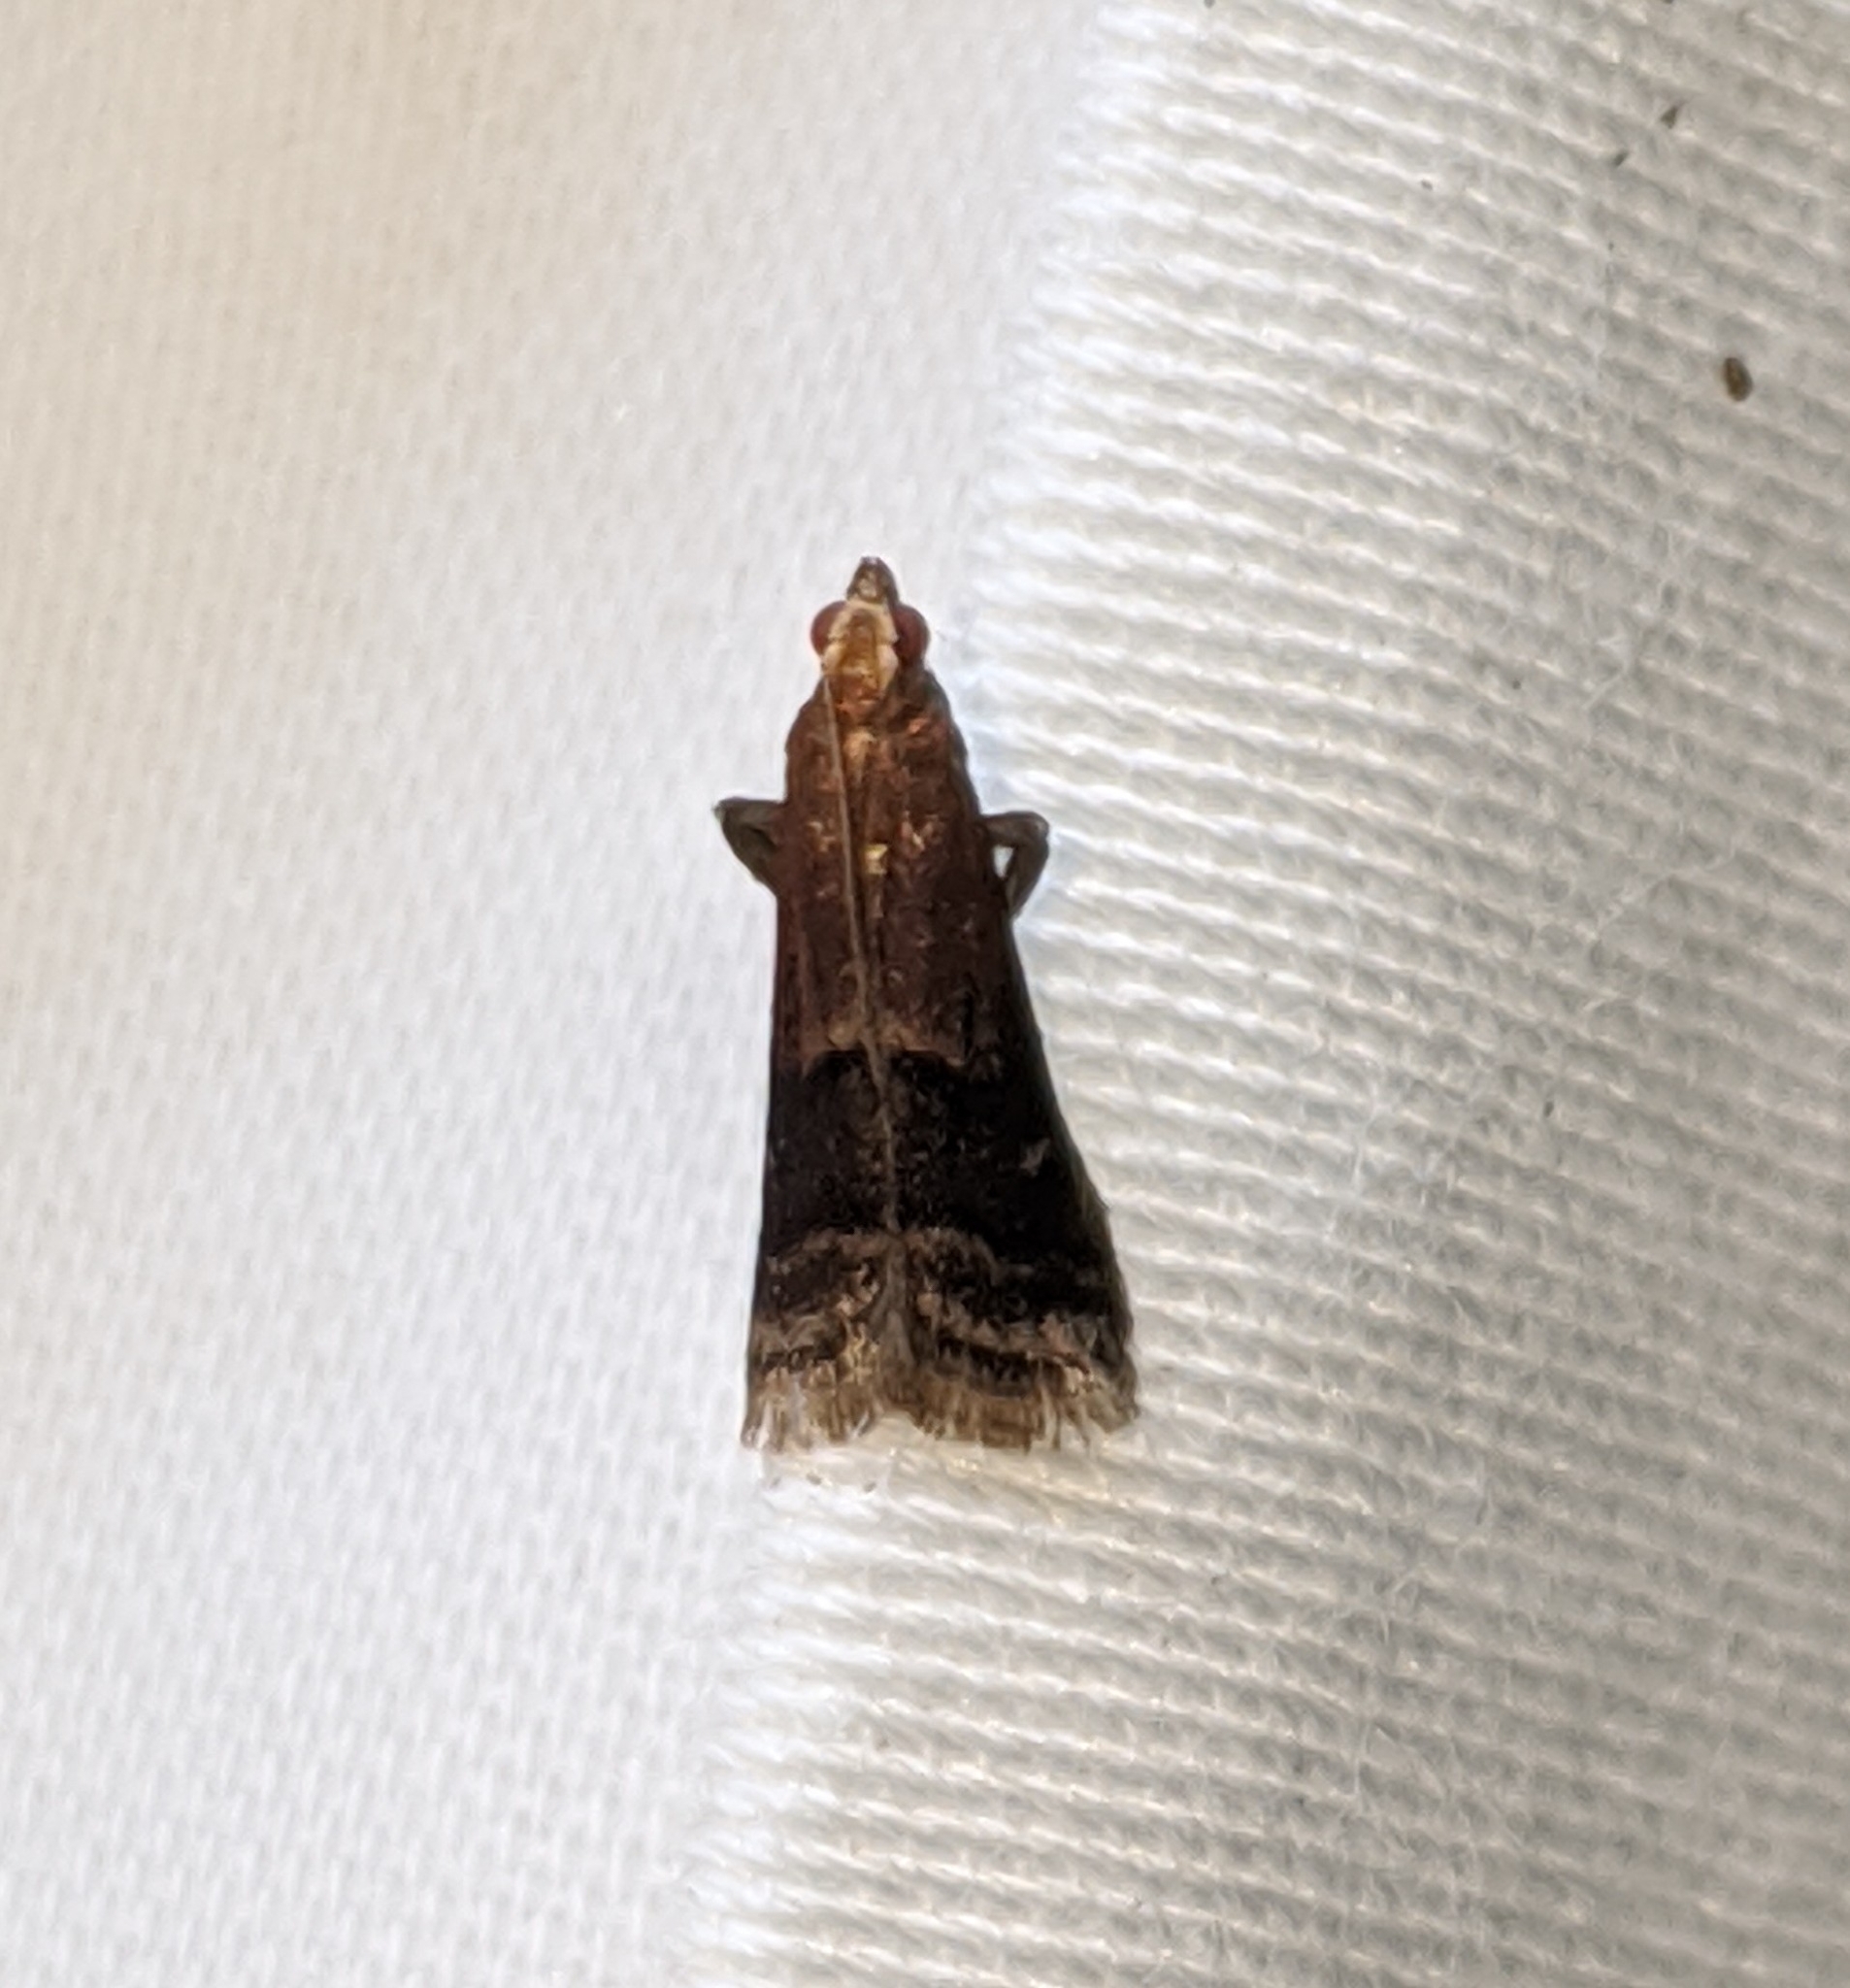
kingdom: Animalia
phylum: Arthropoda
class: Insecta
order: Lepidoptera
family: Pyralidae
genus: Eulogia
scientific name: Eulogia ochrifrontella
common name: Broad-banded eulogia moth
